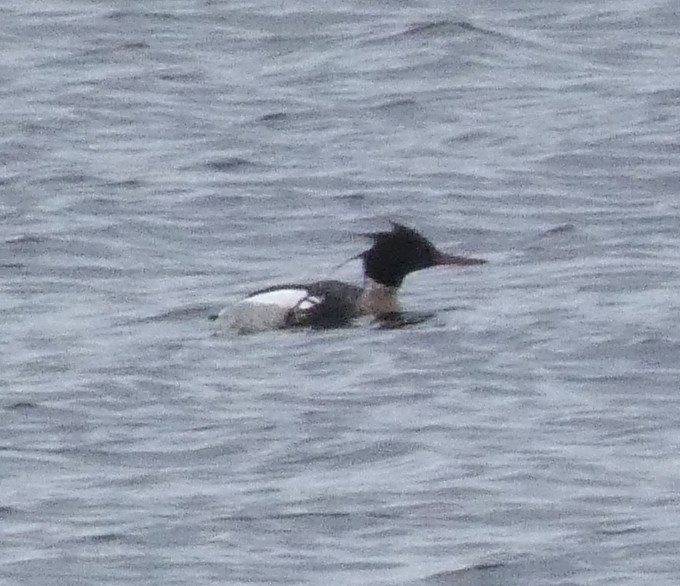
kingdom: Animalia
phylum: Chordata
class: Aves
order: Anseriformes
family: Anatidae
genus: Mergus
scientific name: Mergus serrator
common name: Red-breasted merganser
